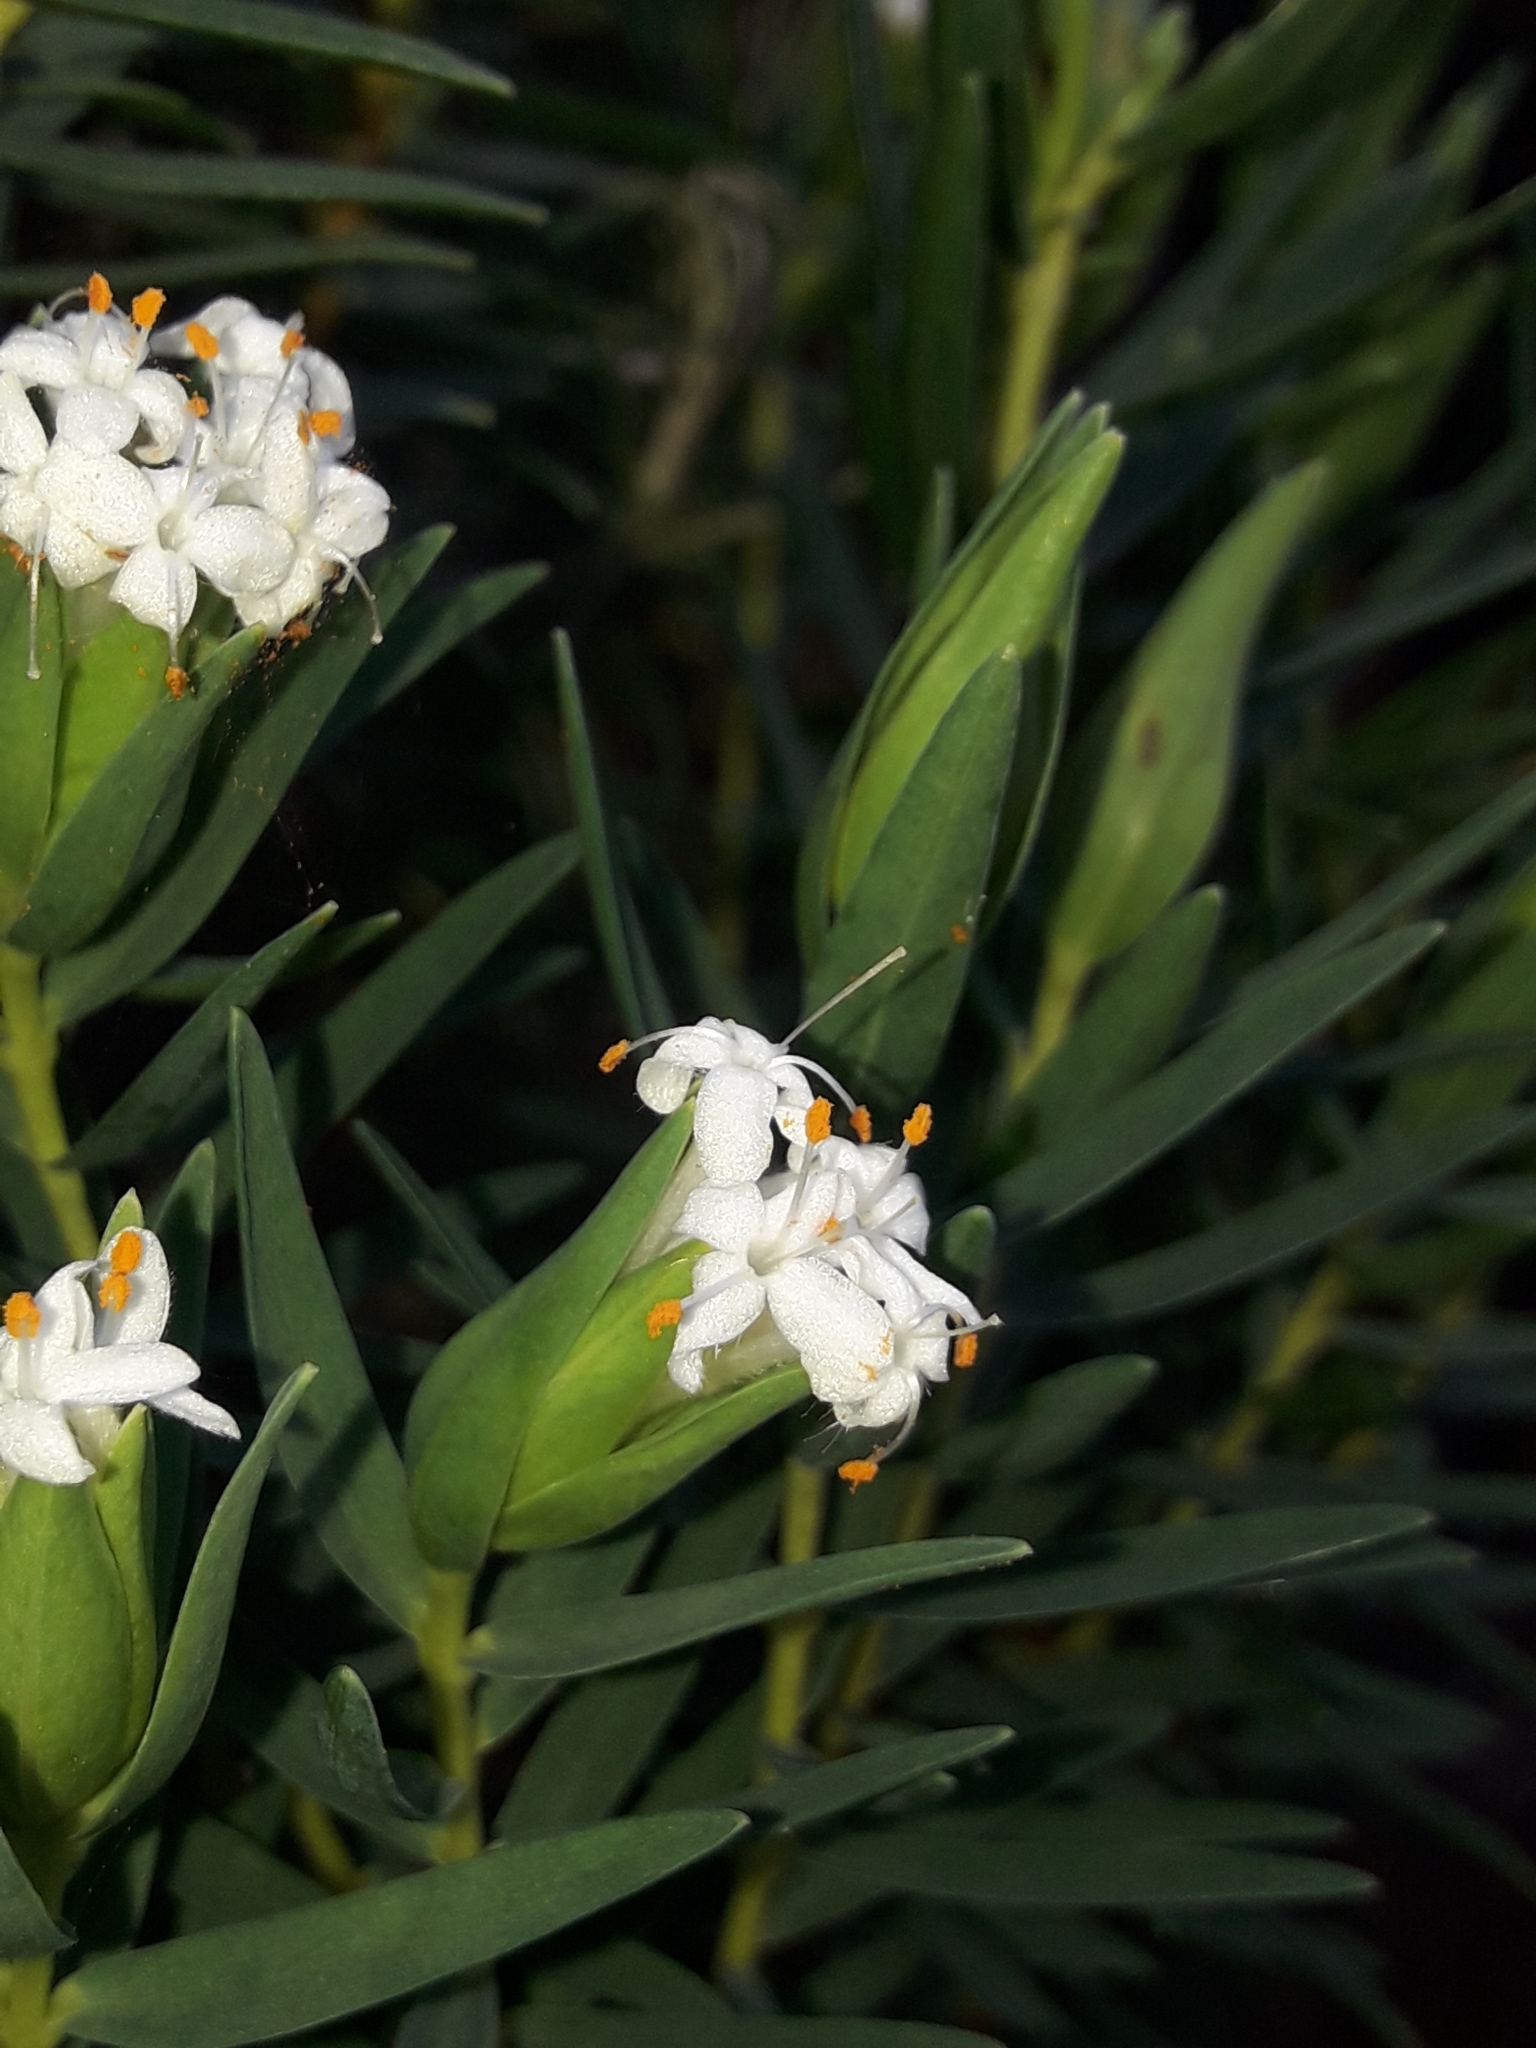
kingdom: Plantae
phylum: Tracheophyta
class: Magnoliopsida
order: Malvales
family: Thymelaeaceae
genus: Pimelea
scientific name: Pimelea congesta
